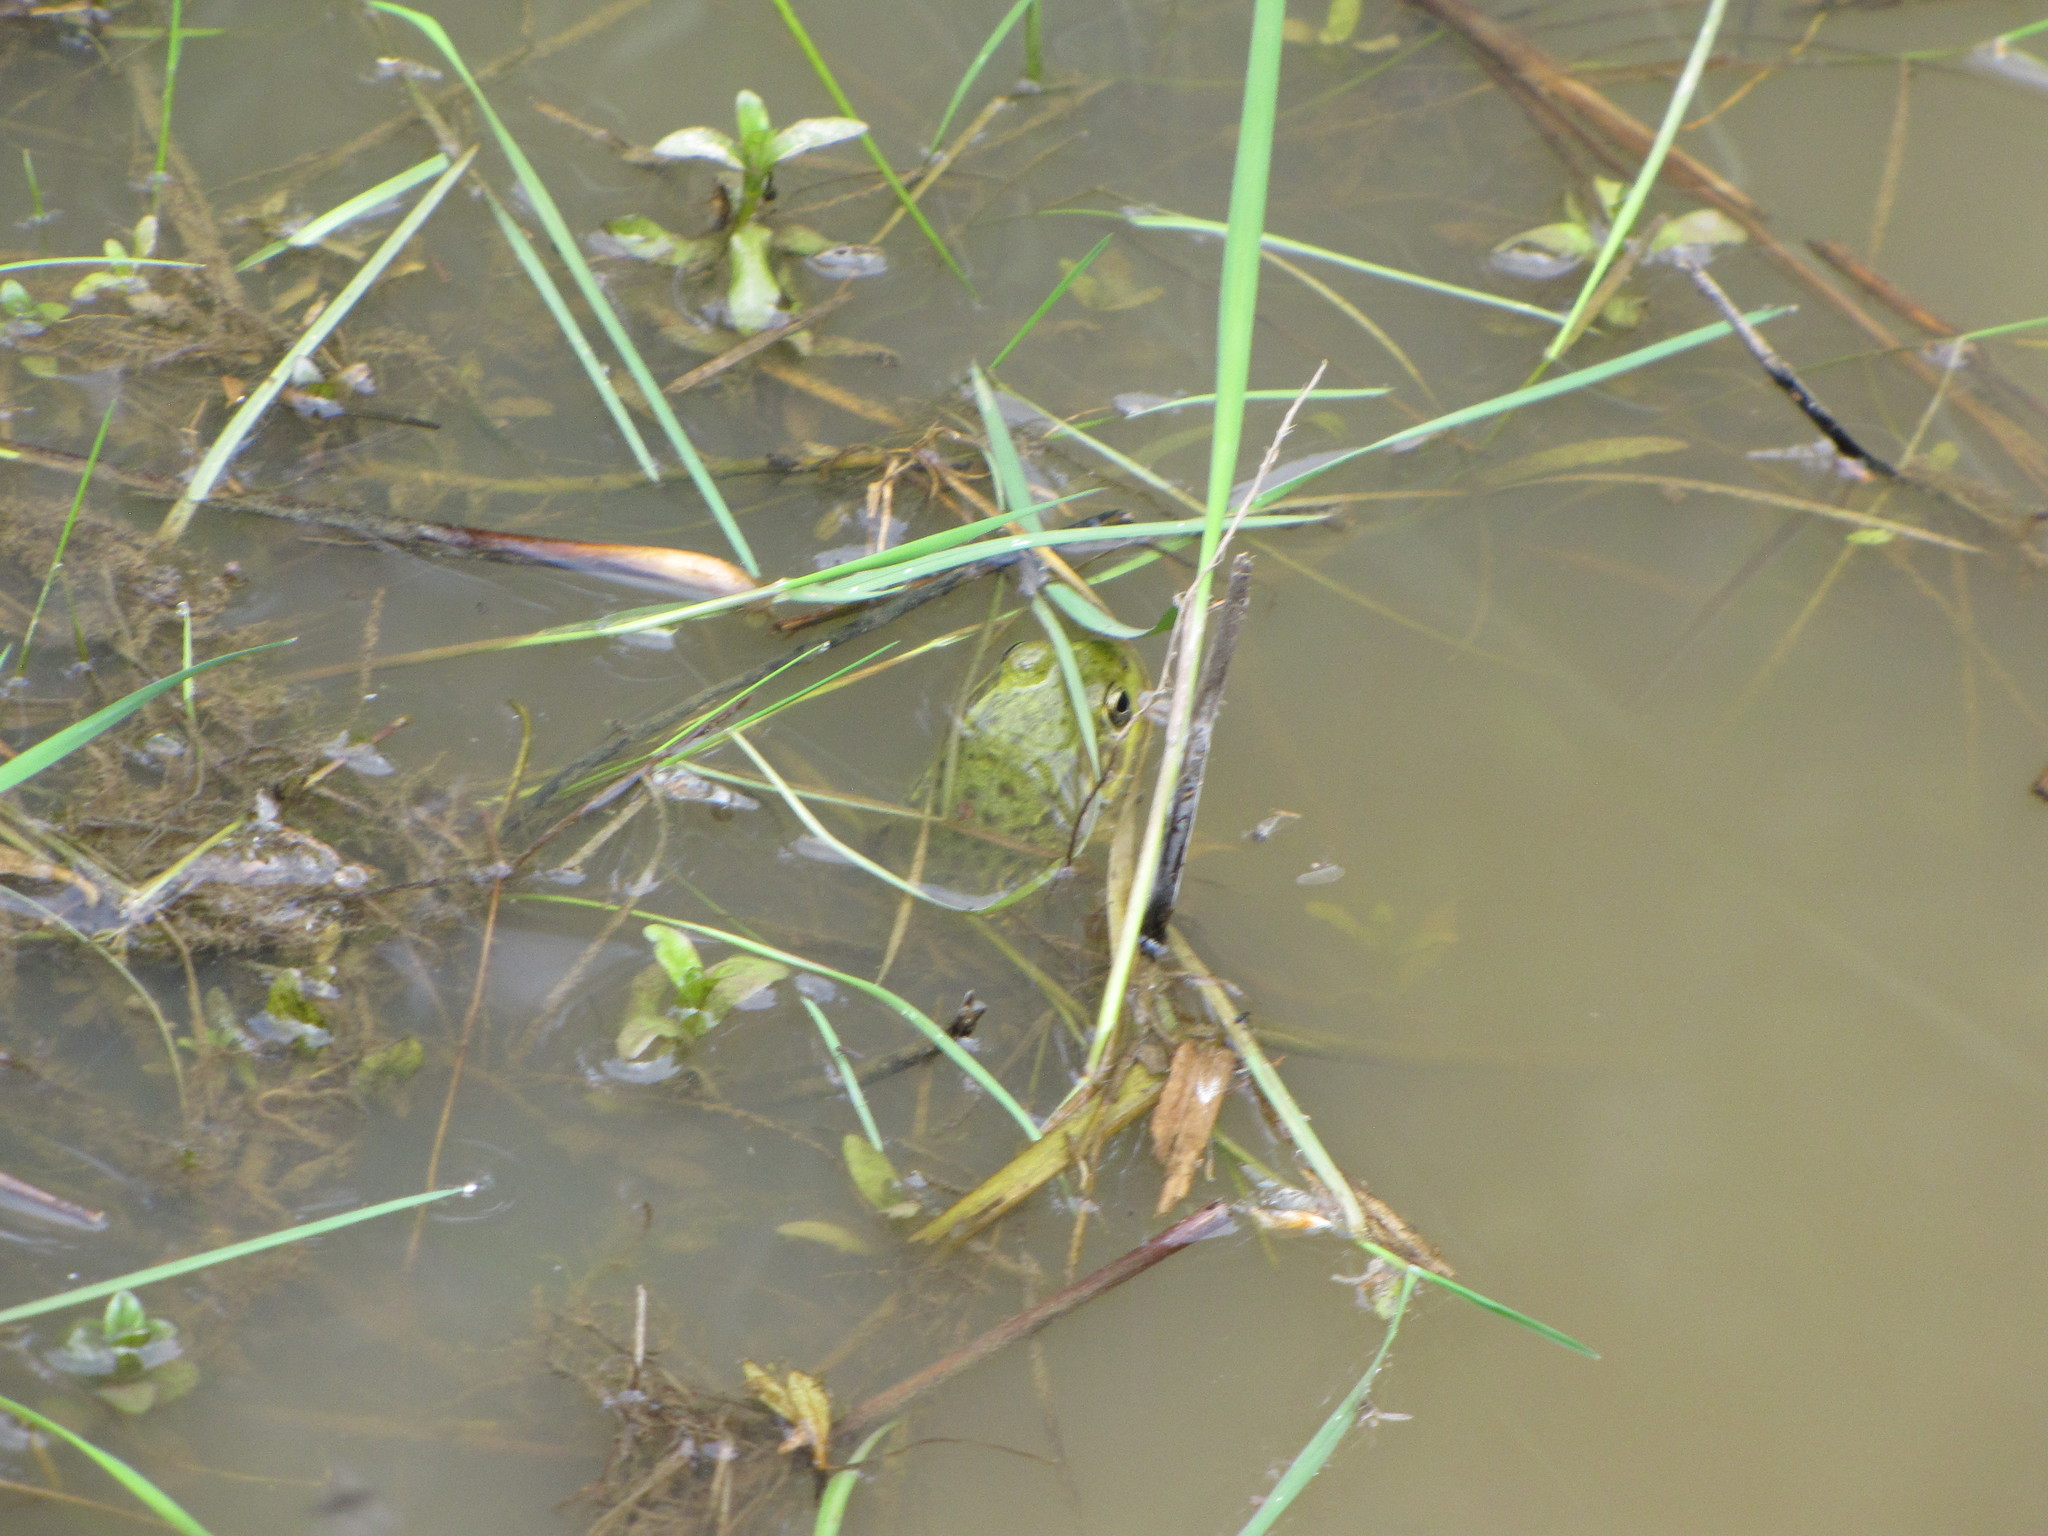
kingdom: Animalia
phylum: Chordata
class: Amphibia
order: Anura
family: Ranidae
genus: Lithobates
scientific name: Lithobates clamitans
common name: Green frog
